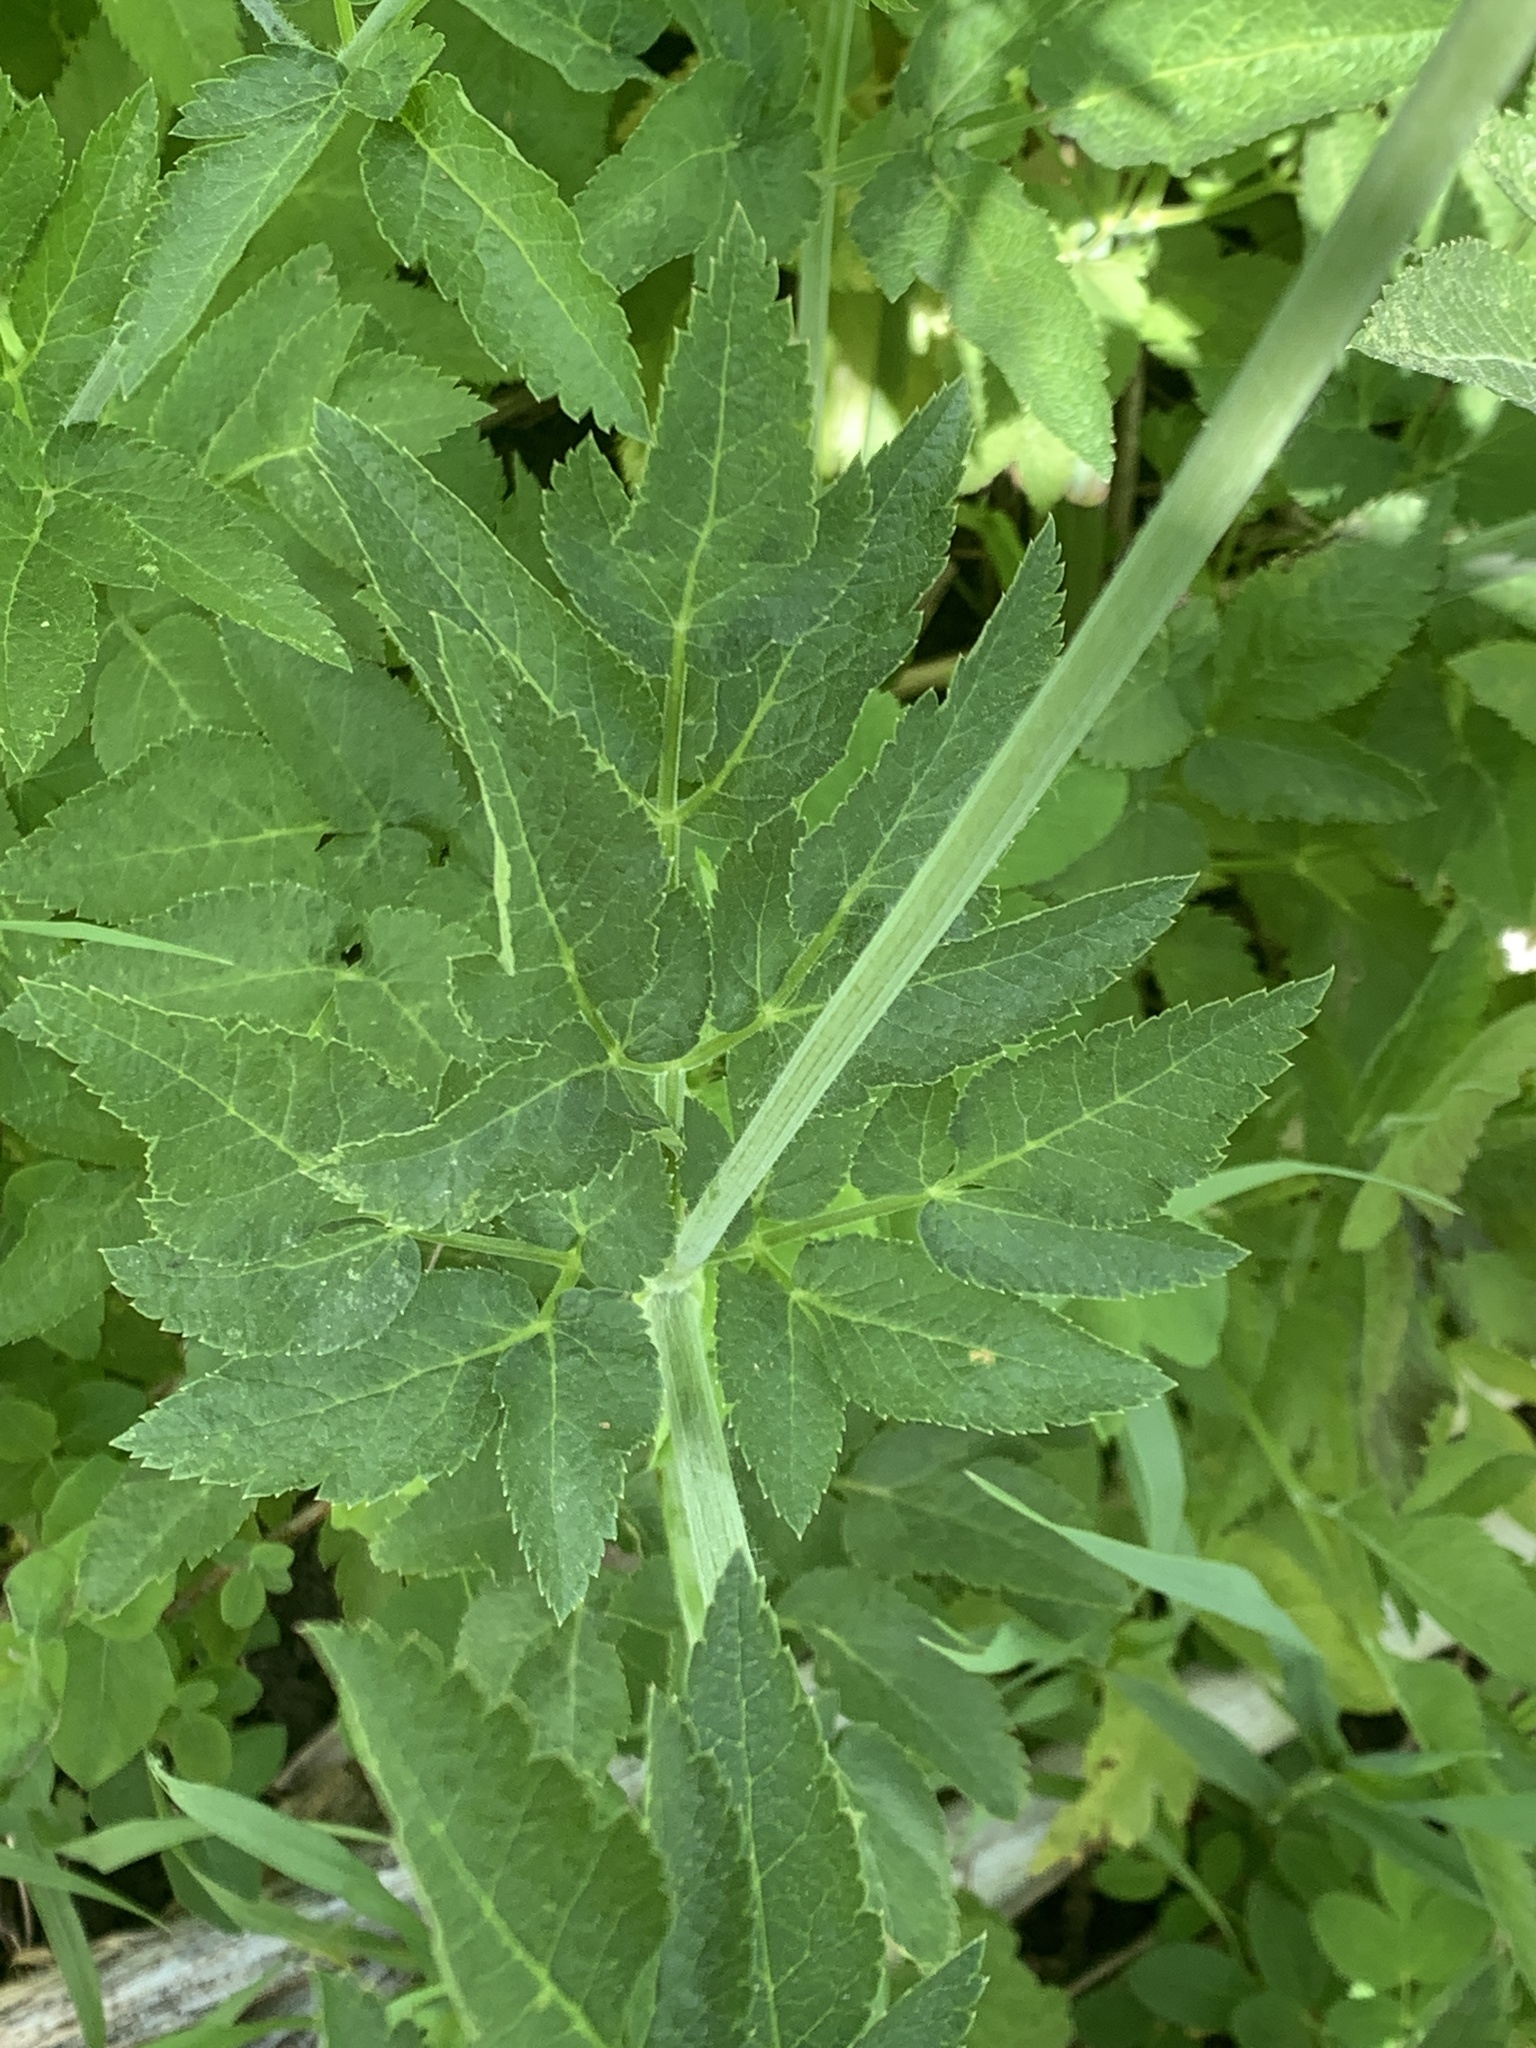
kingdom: Plantae
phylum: Tracheophyta
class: Magnoliopsida
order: Apiales
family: Apiaceae
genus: Osmorhiza
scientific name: Osmorhiza occidentalis
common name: Western sweet cicely
